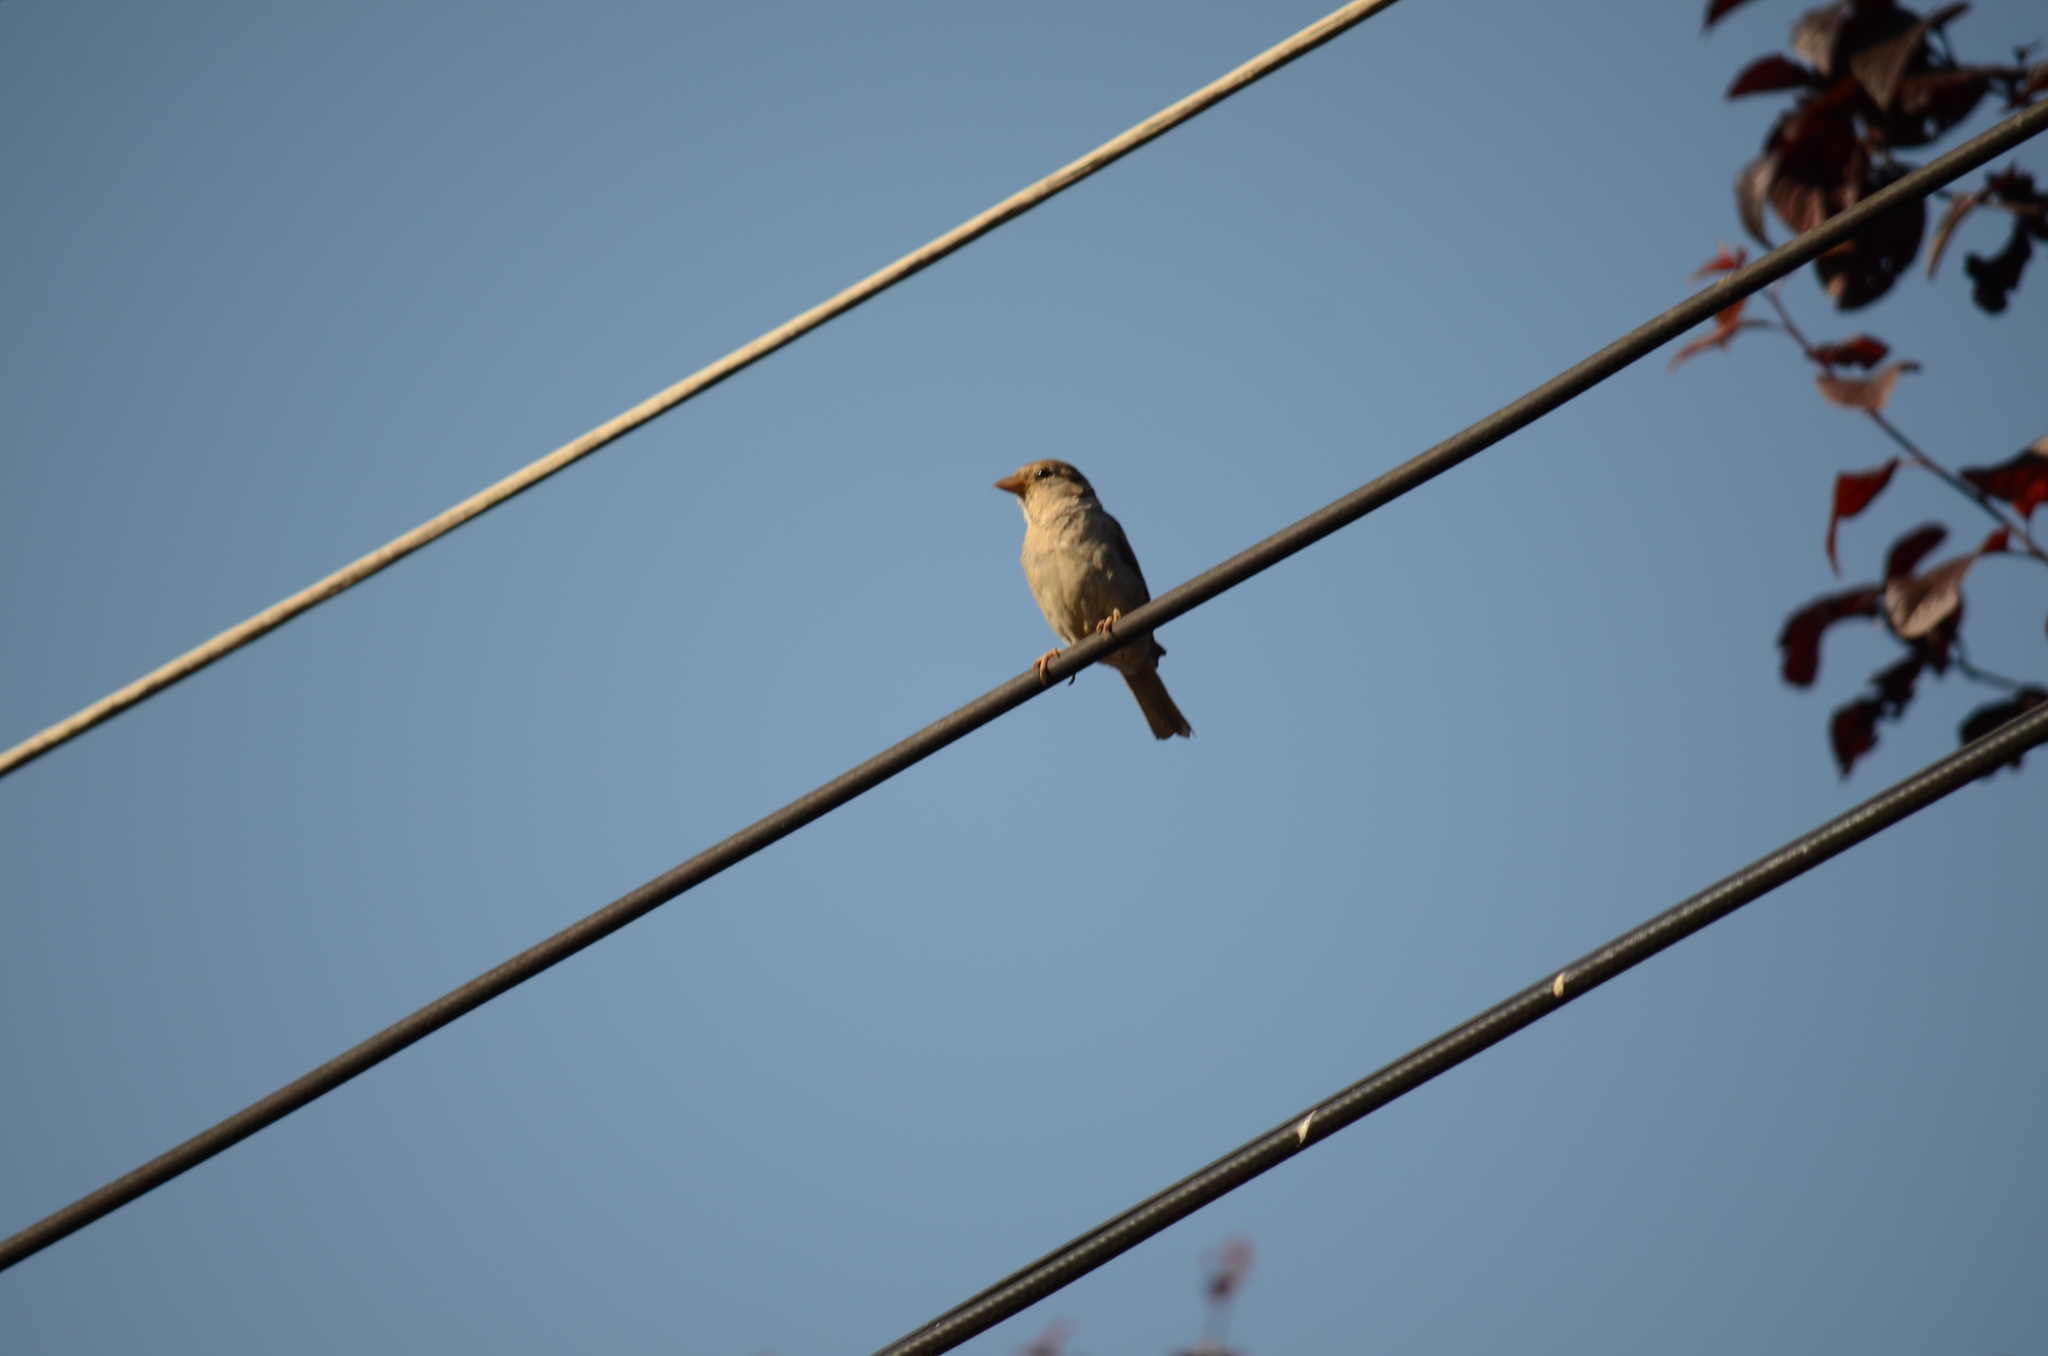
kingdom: Animalia
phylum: Chordata
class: Aves
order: Passeriformes
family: Passeridae
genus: Passer
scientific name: Passer domesticus
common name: House sparrow
